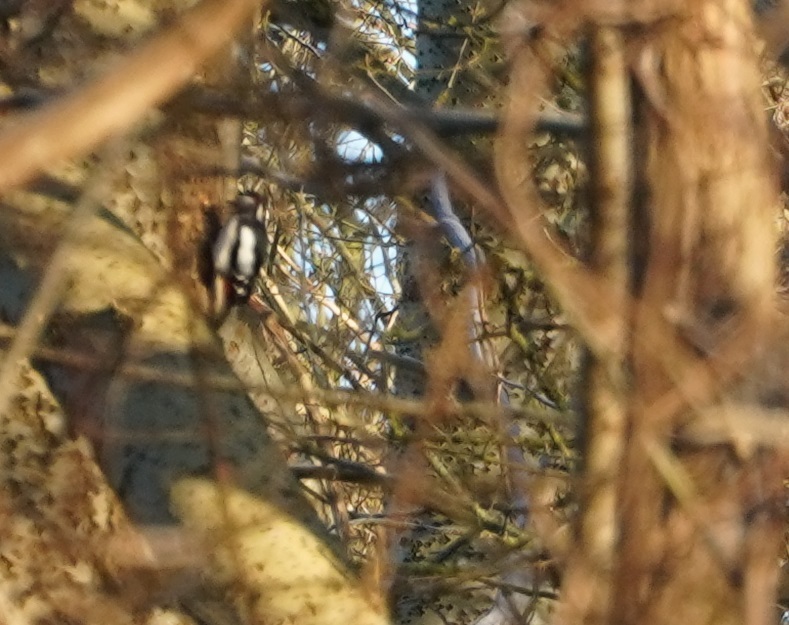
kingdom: Animalia
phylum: Chordata
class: Aves
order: Piciformes
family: Picidae
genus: Dendrocopos
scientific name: Dendrocopos major
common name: Great spotted woodpecker
